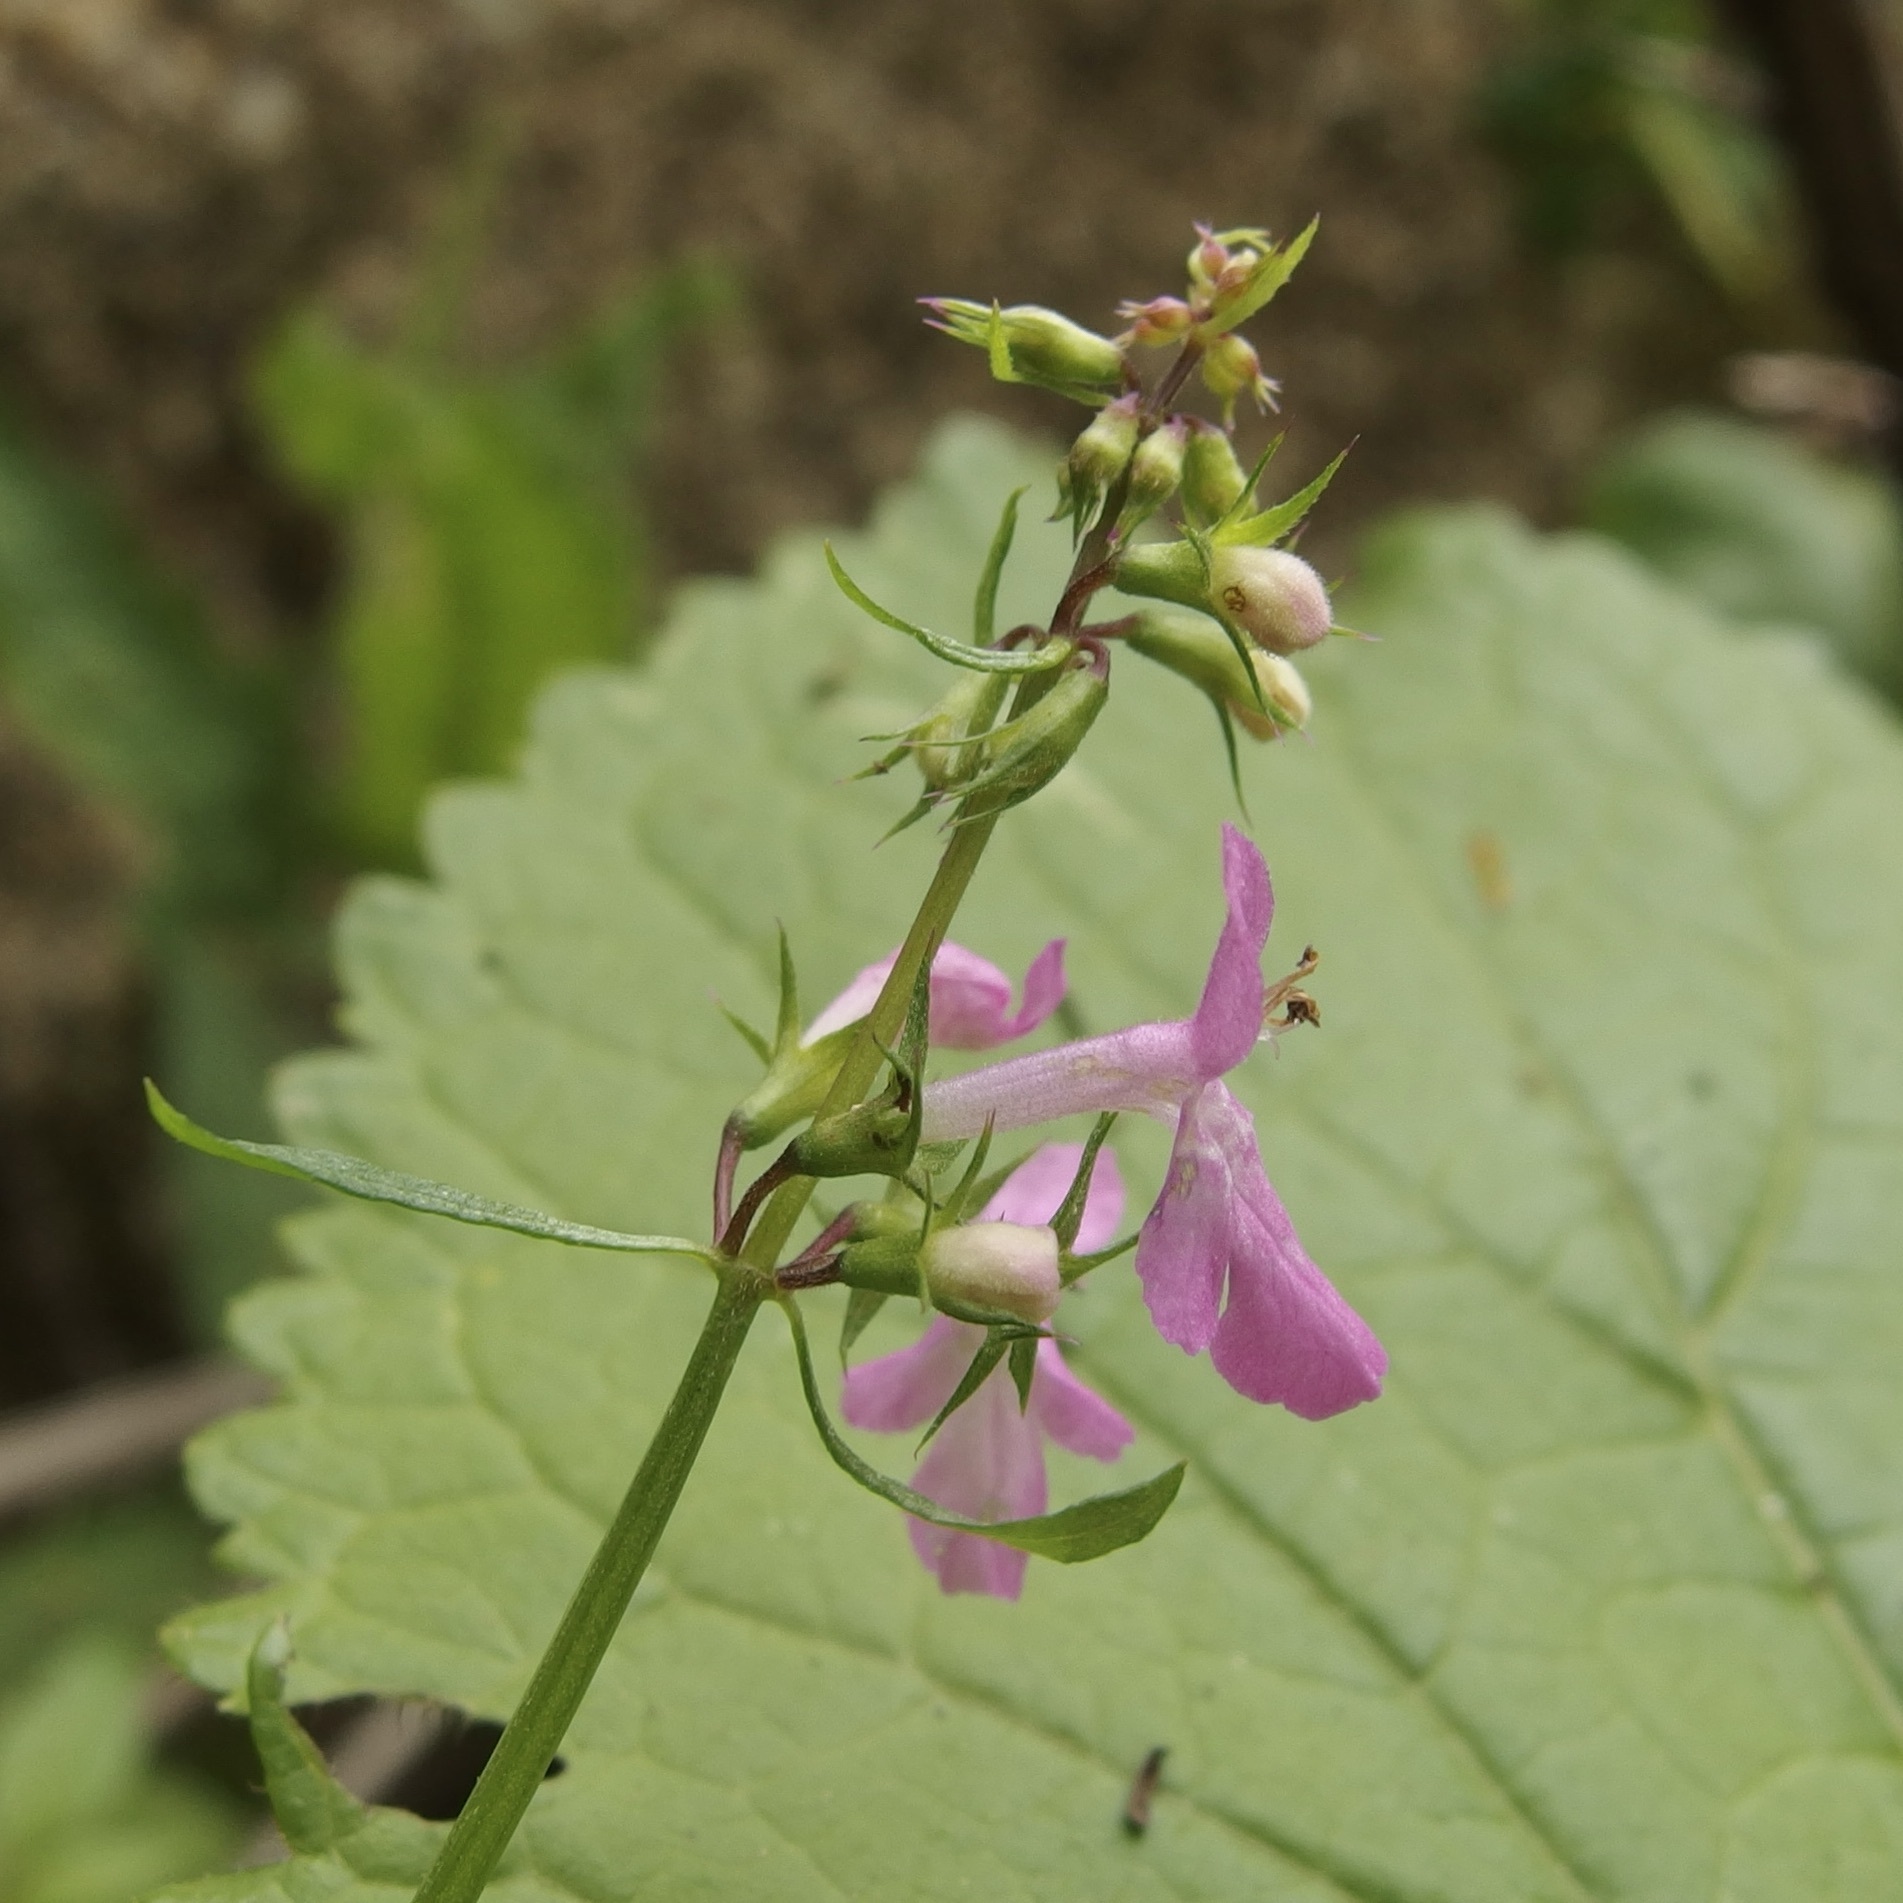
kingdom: Plantae
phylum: Tracheophyta
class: Magnoliopsida
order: Lamiales
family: Lamiaceae
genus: Stachys
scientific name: Stachys tenerrima
